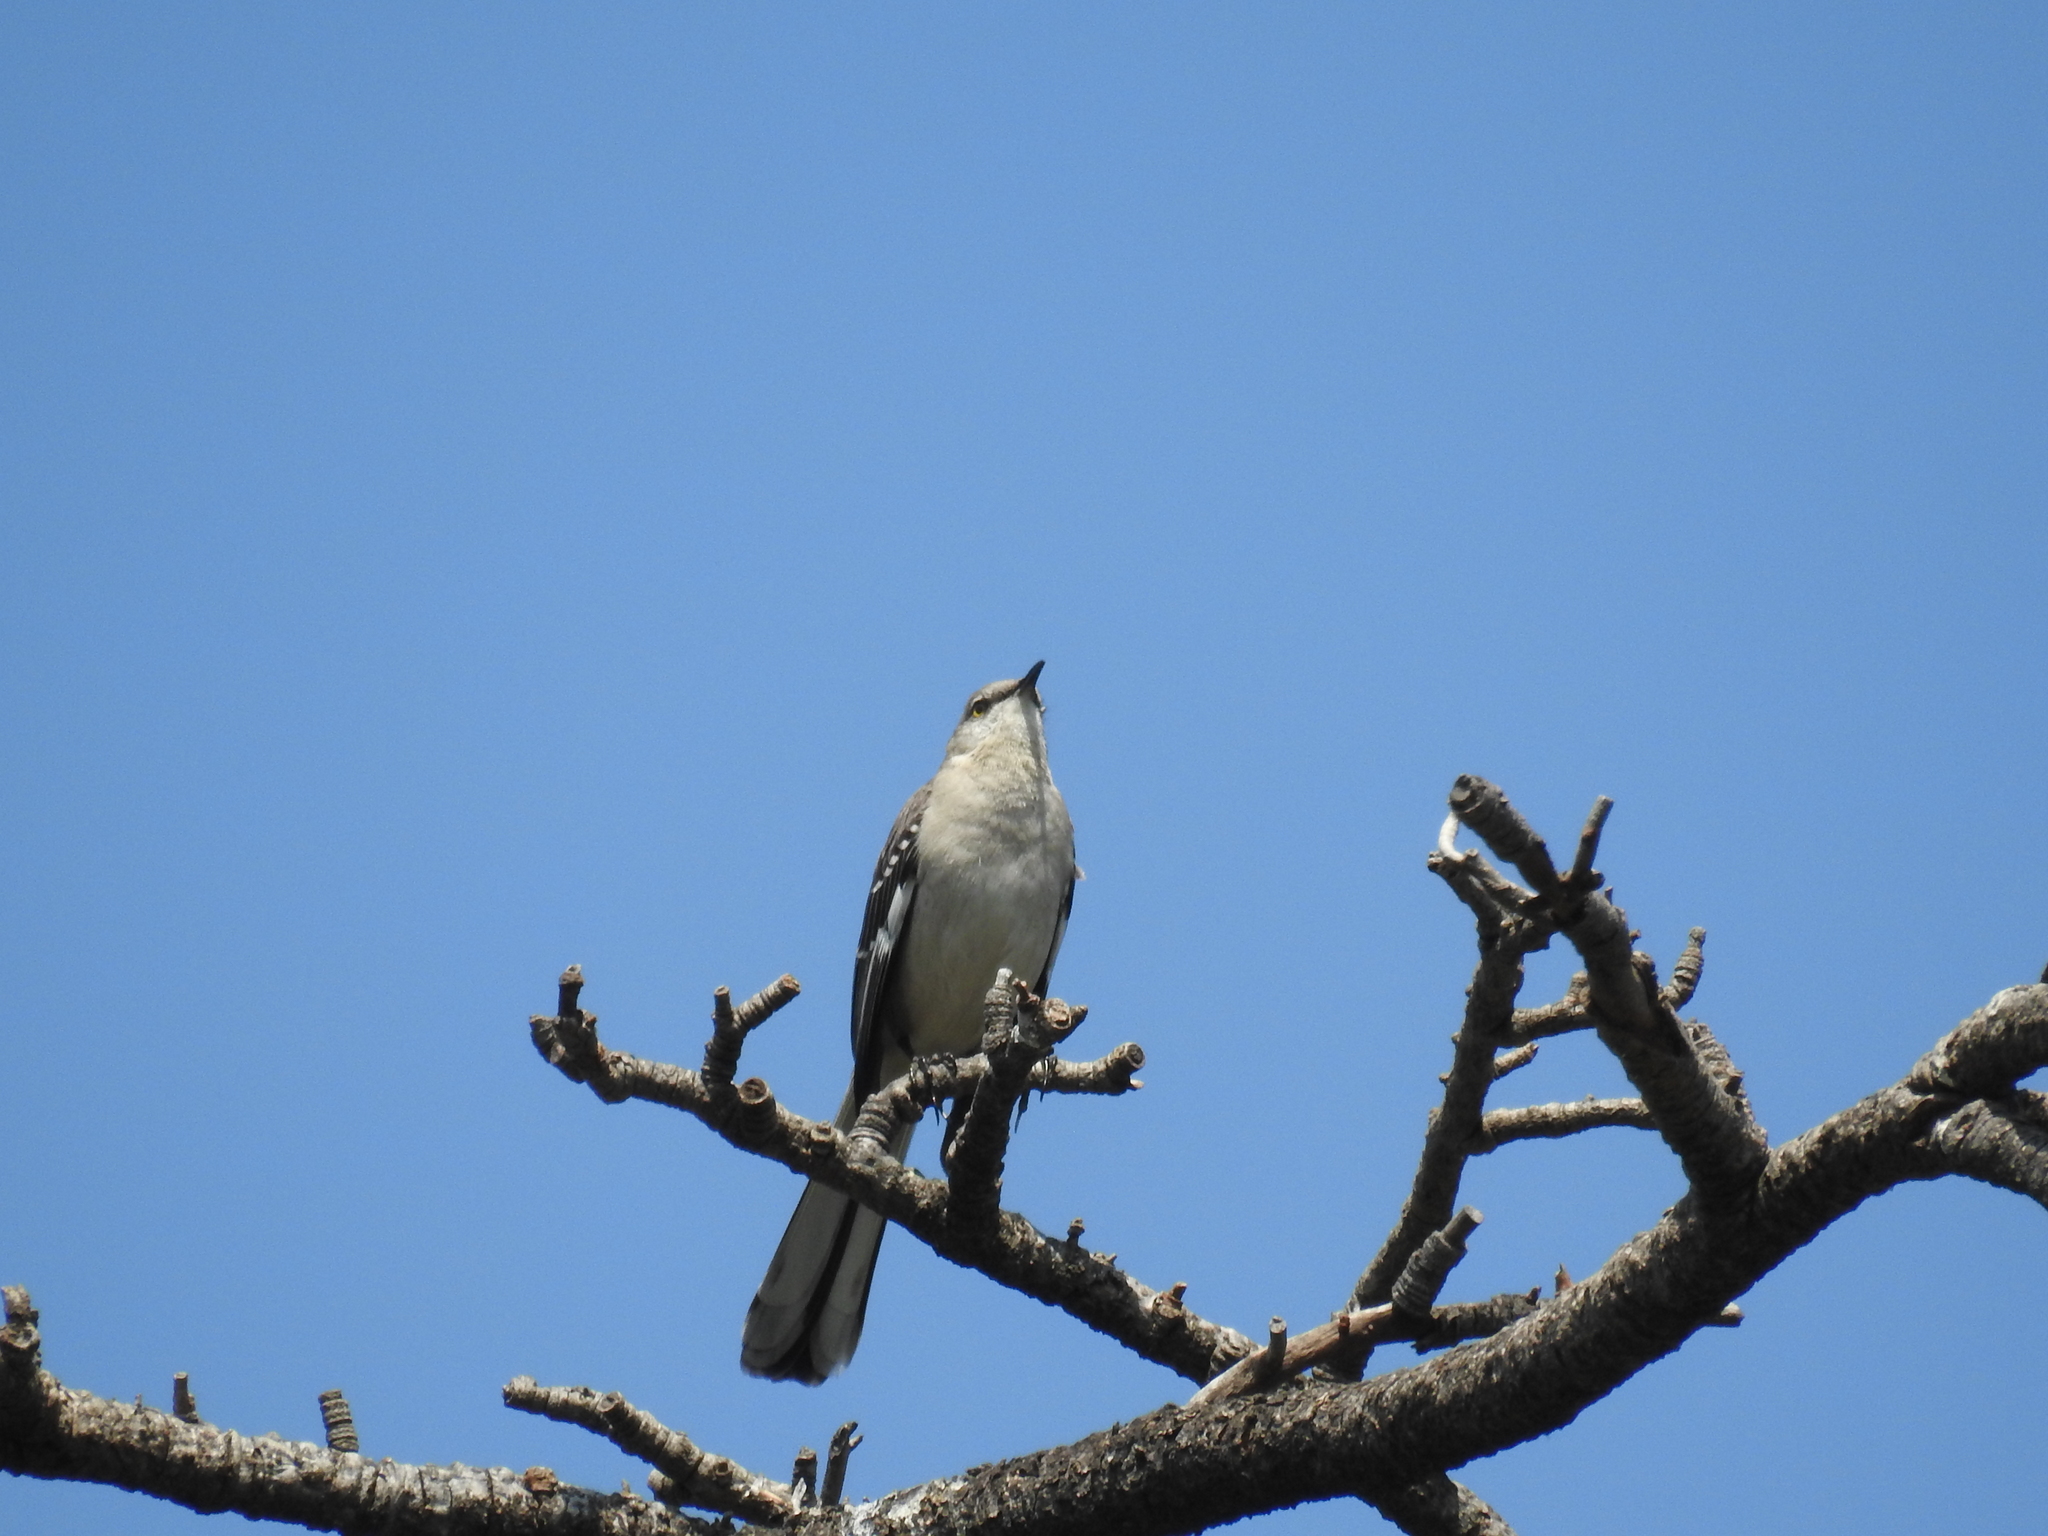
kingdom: Animalia
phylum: Chordata
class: Aves
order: Passeriformes
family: Mimidae
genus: Mimus
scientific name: Mimus polyglottos
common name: Northern mockingbird
